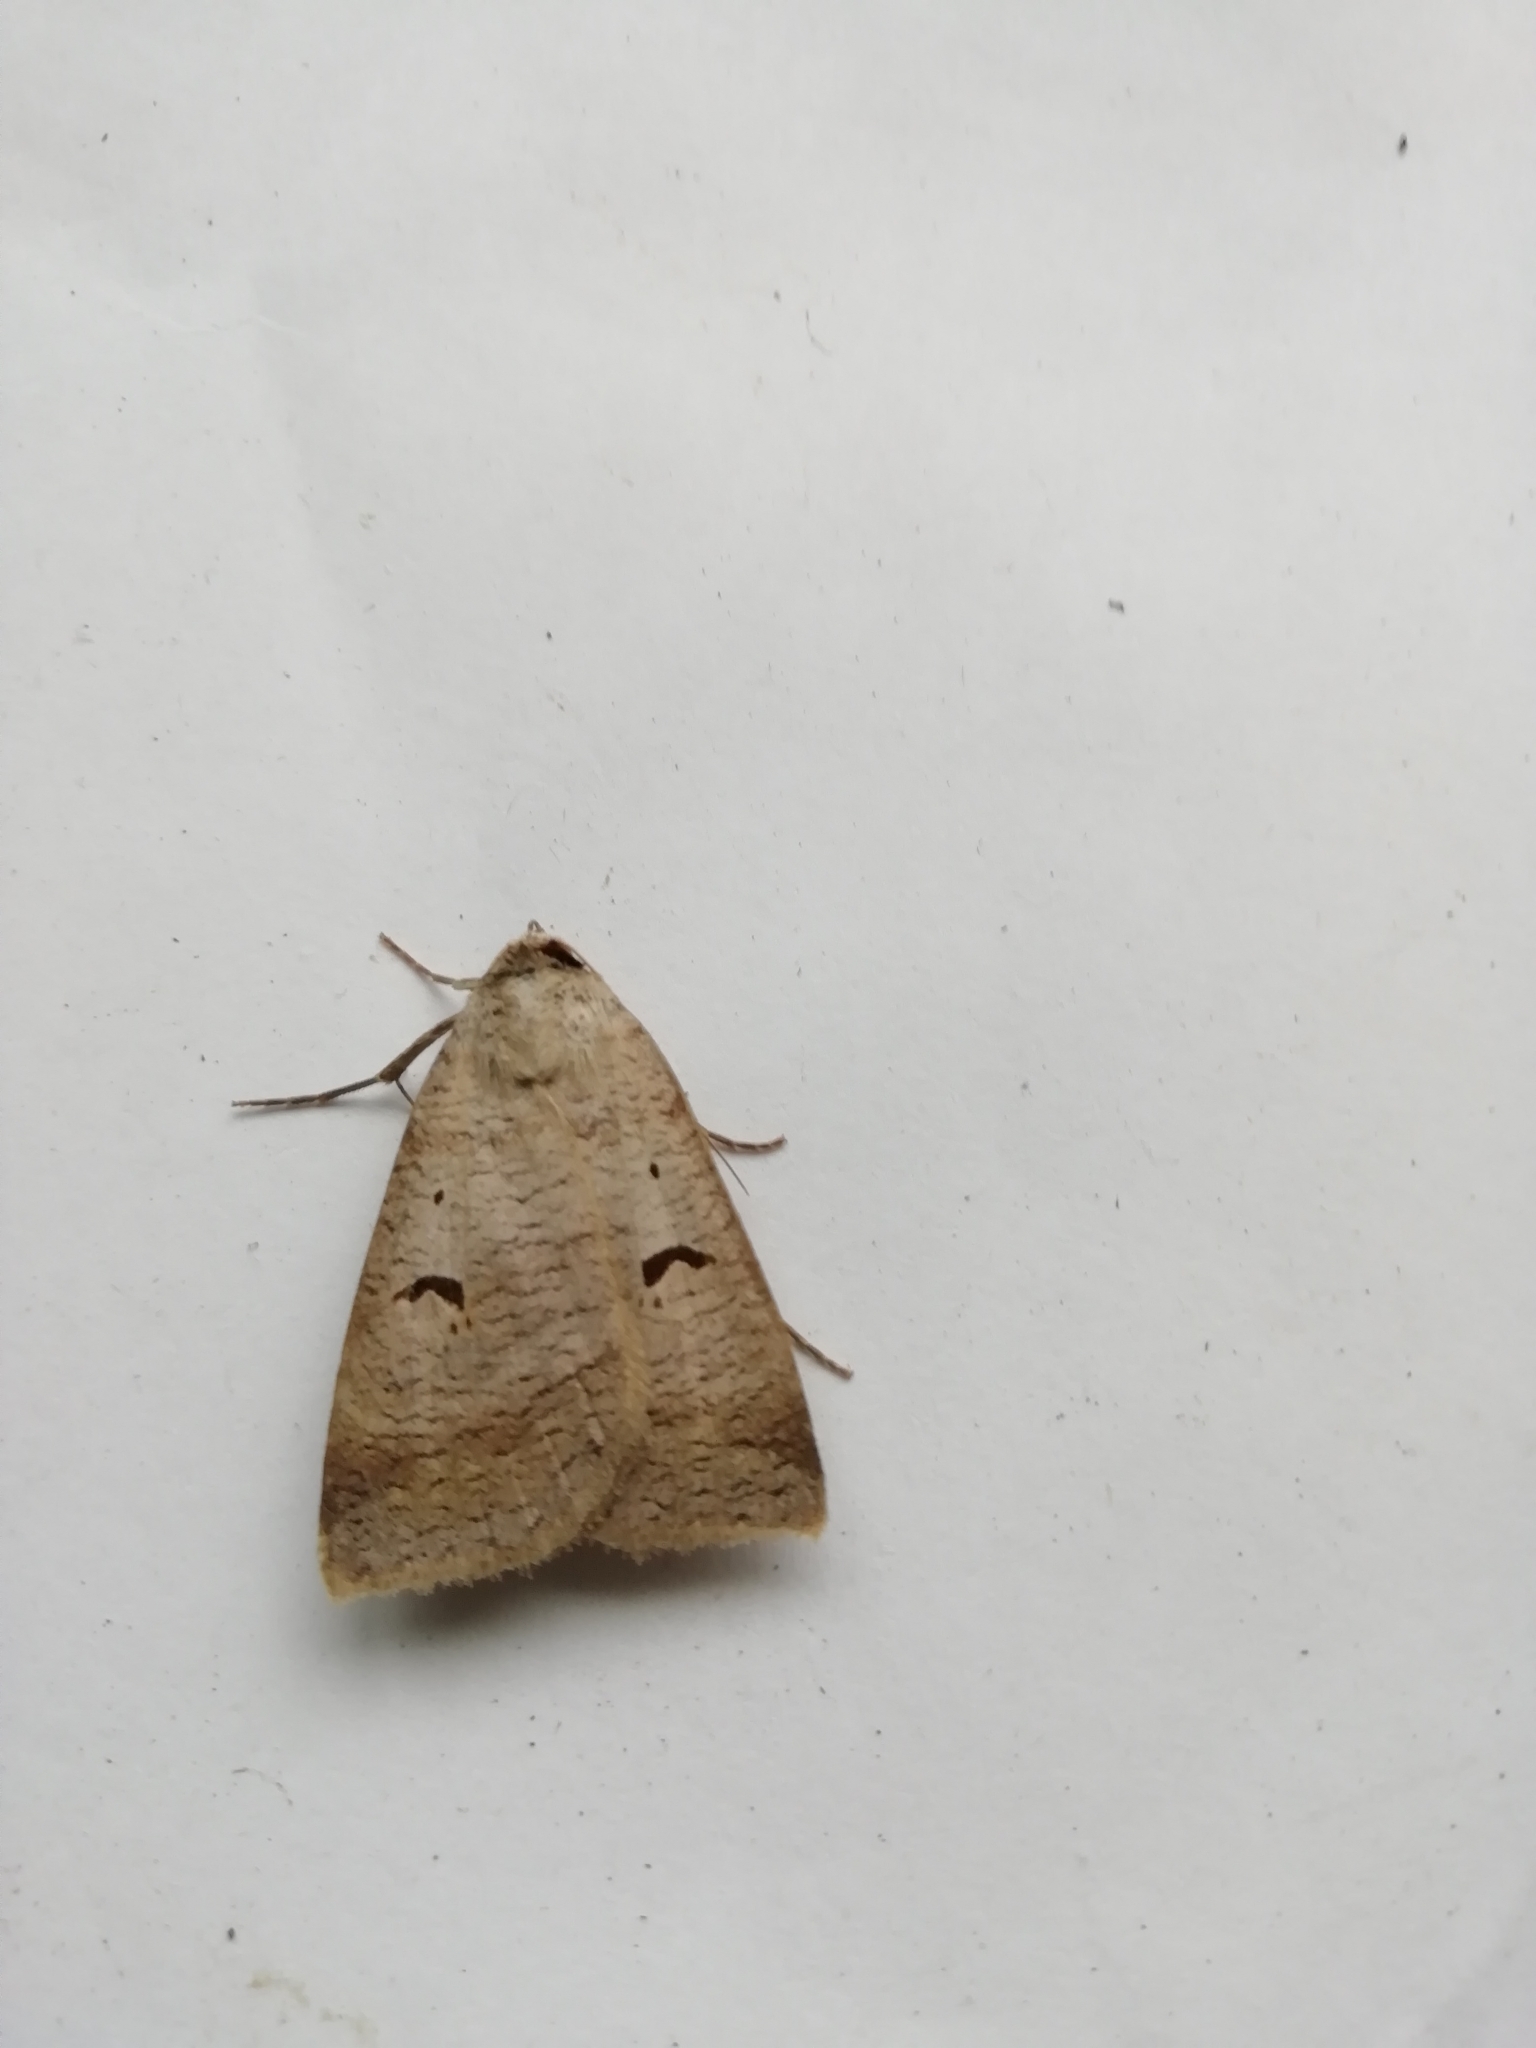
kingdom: Animalia
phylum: Arthropoda
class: Insecta
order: Lepidoptera
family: Erebidae
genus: Lygephila
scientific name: Lygephila pastinum
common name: Blackneck
